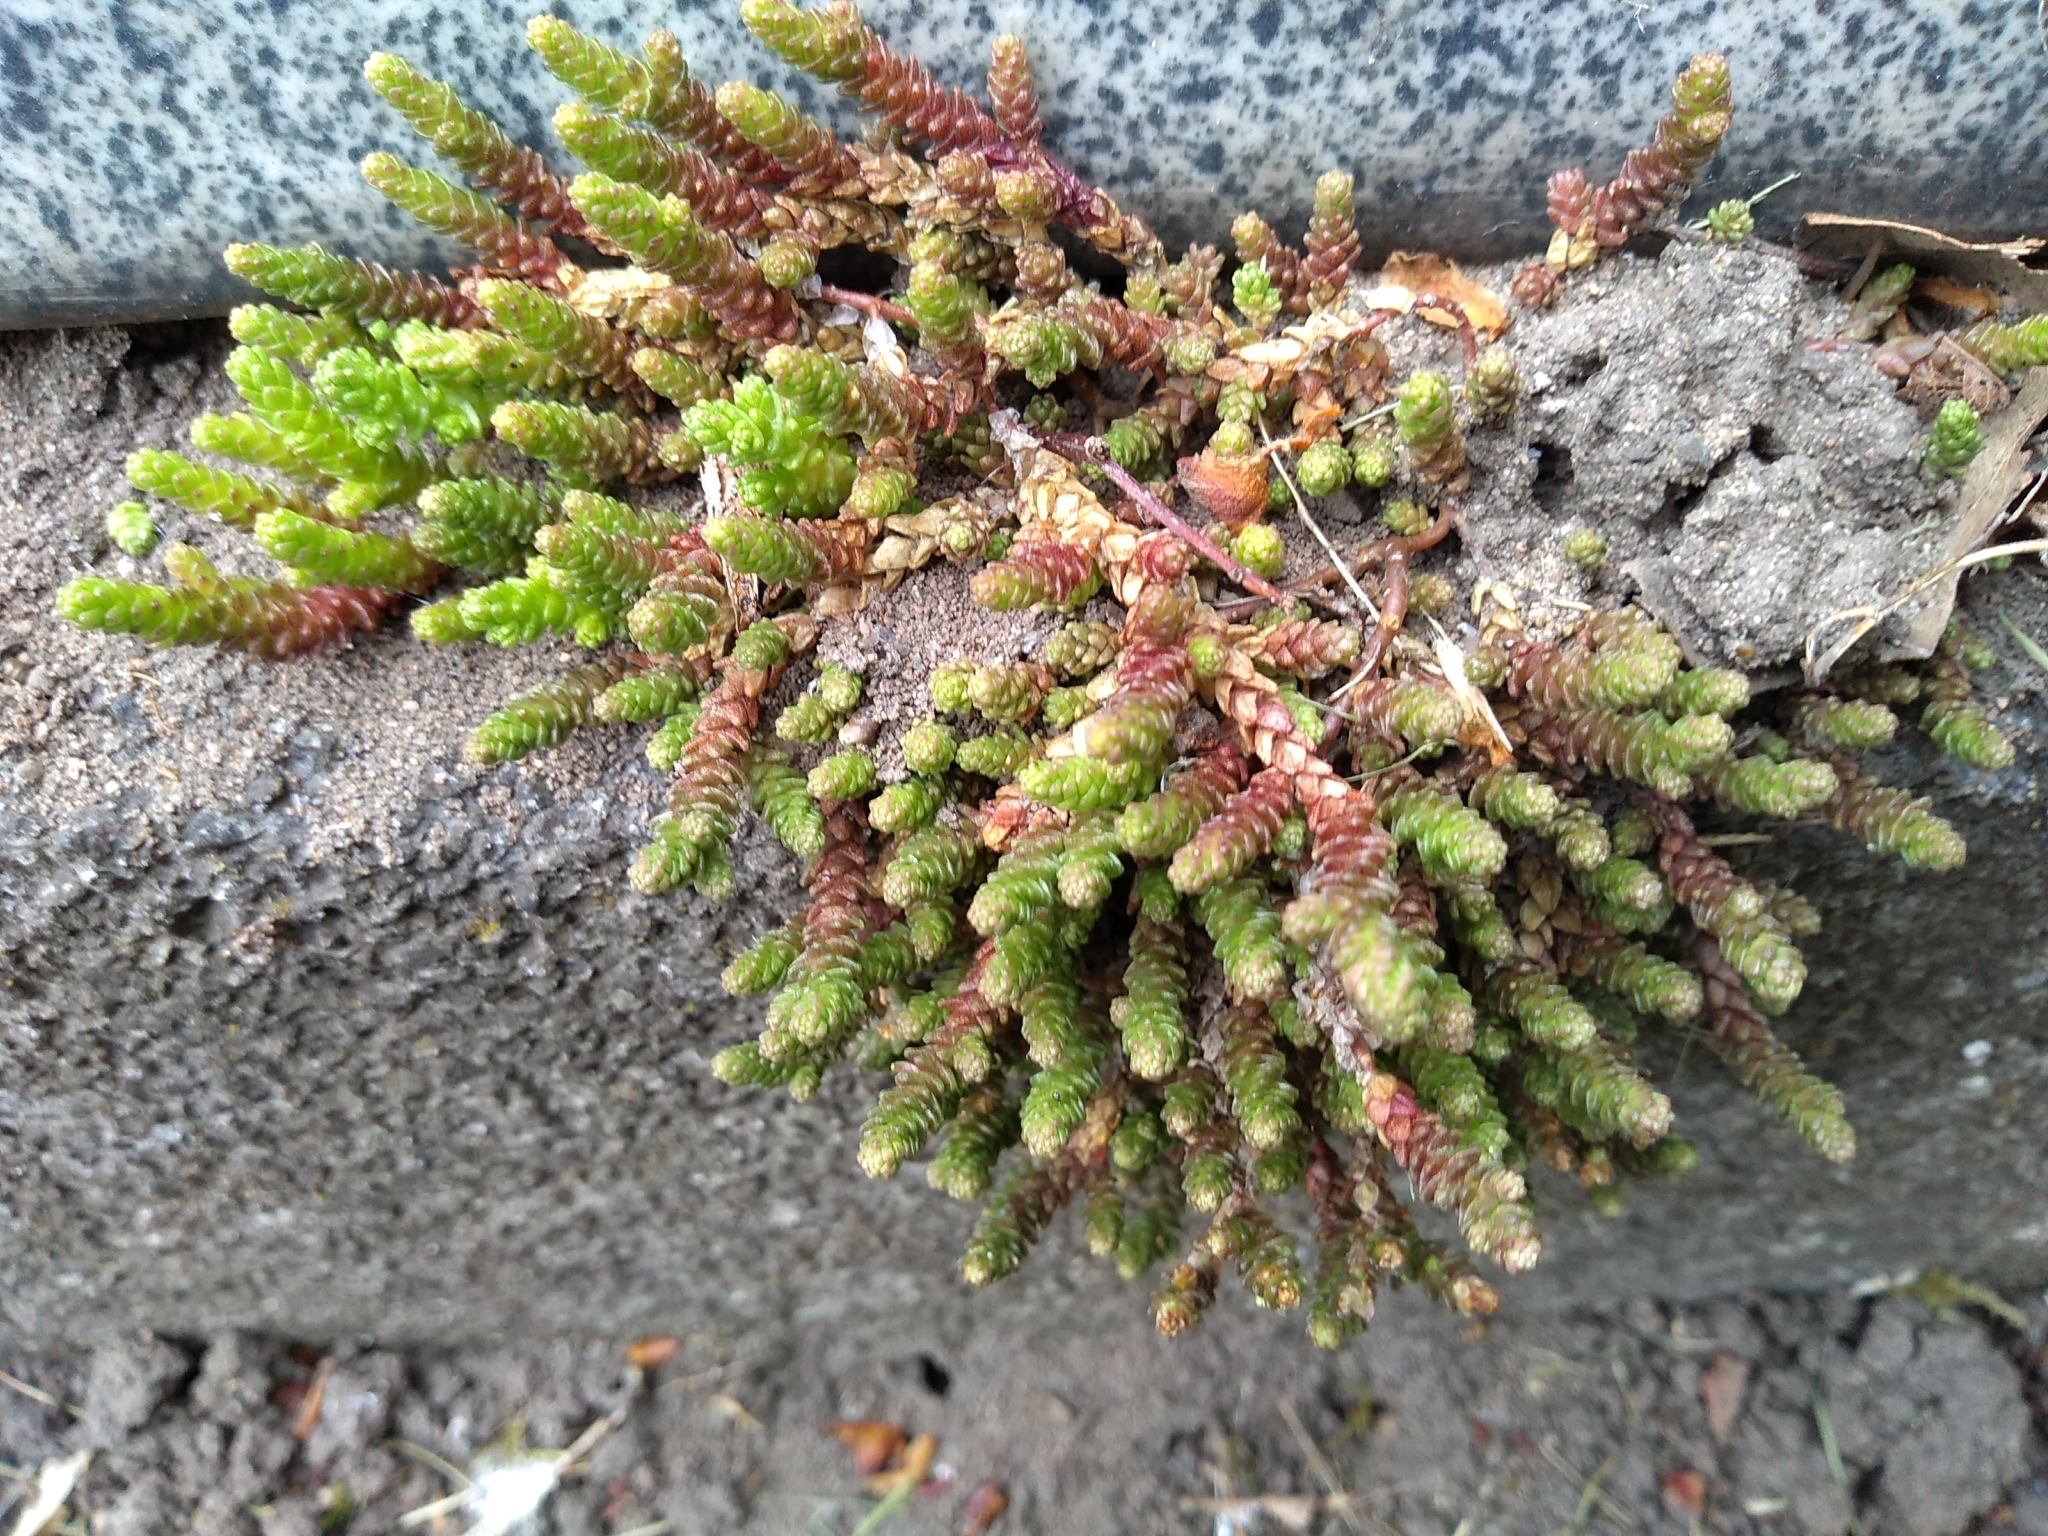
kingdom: Plantae
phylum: Tracheophyta
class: Magnoliopsida
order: Saxifragales
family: Crassulaceae
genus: Sedum
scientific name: Sedum acre
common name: Biting stonecrop
